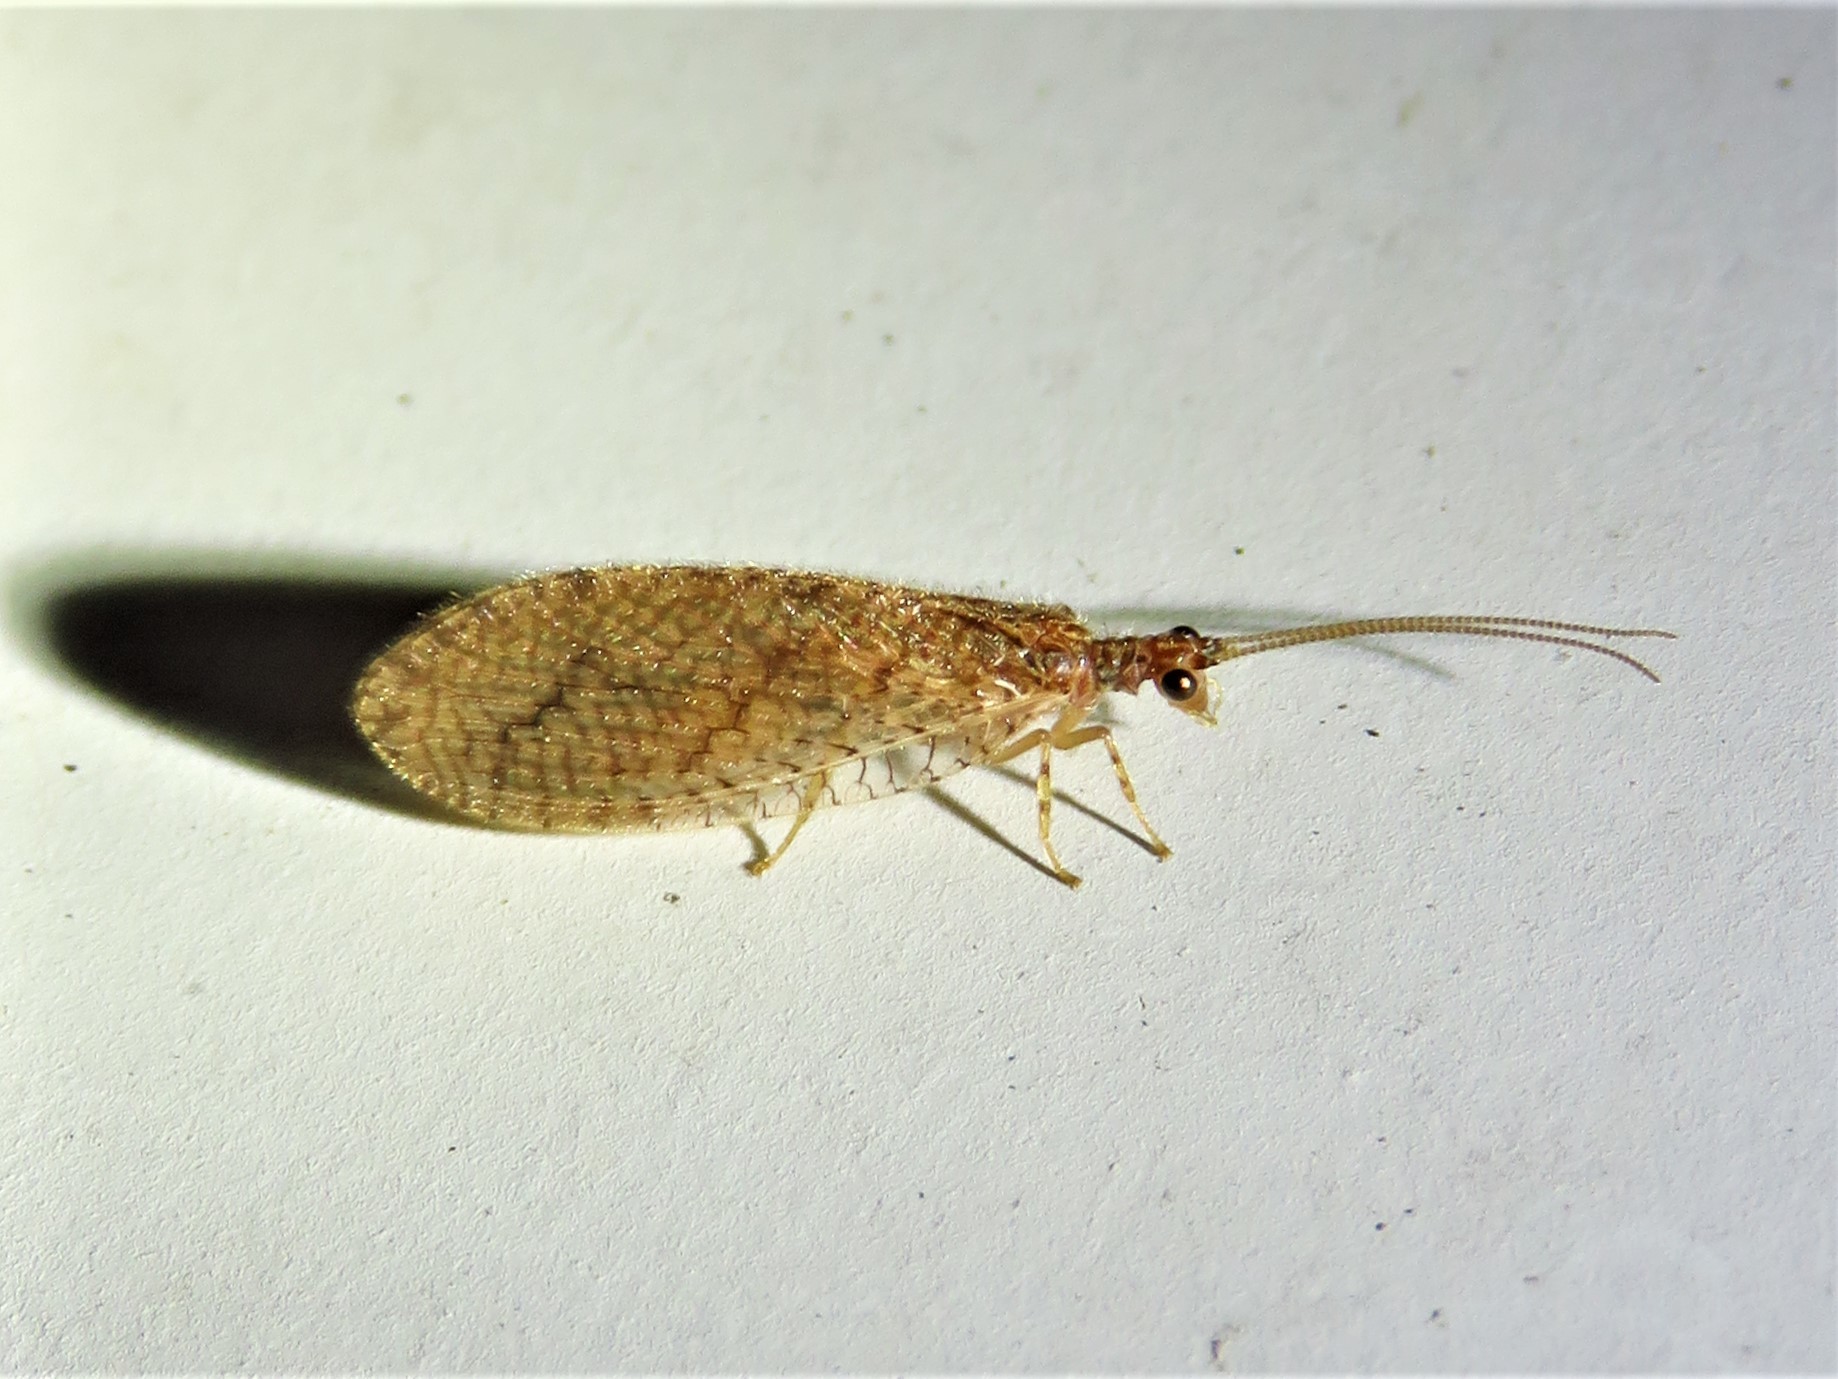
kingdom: Animalia
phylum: Arthropoda
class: Insecta
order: Neuroptera
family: Hemerobiidae
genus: Micromus
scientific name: Micromus posticus
